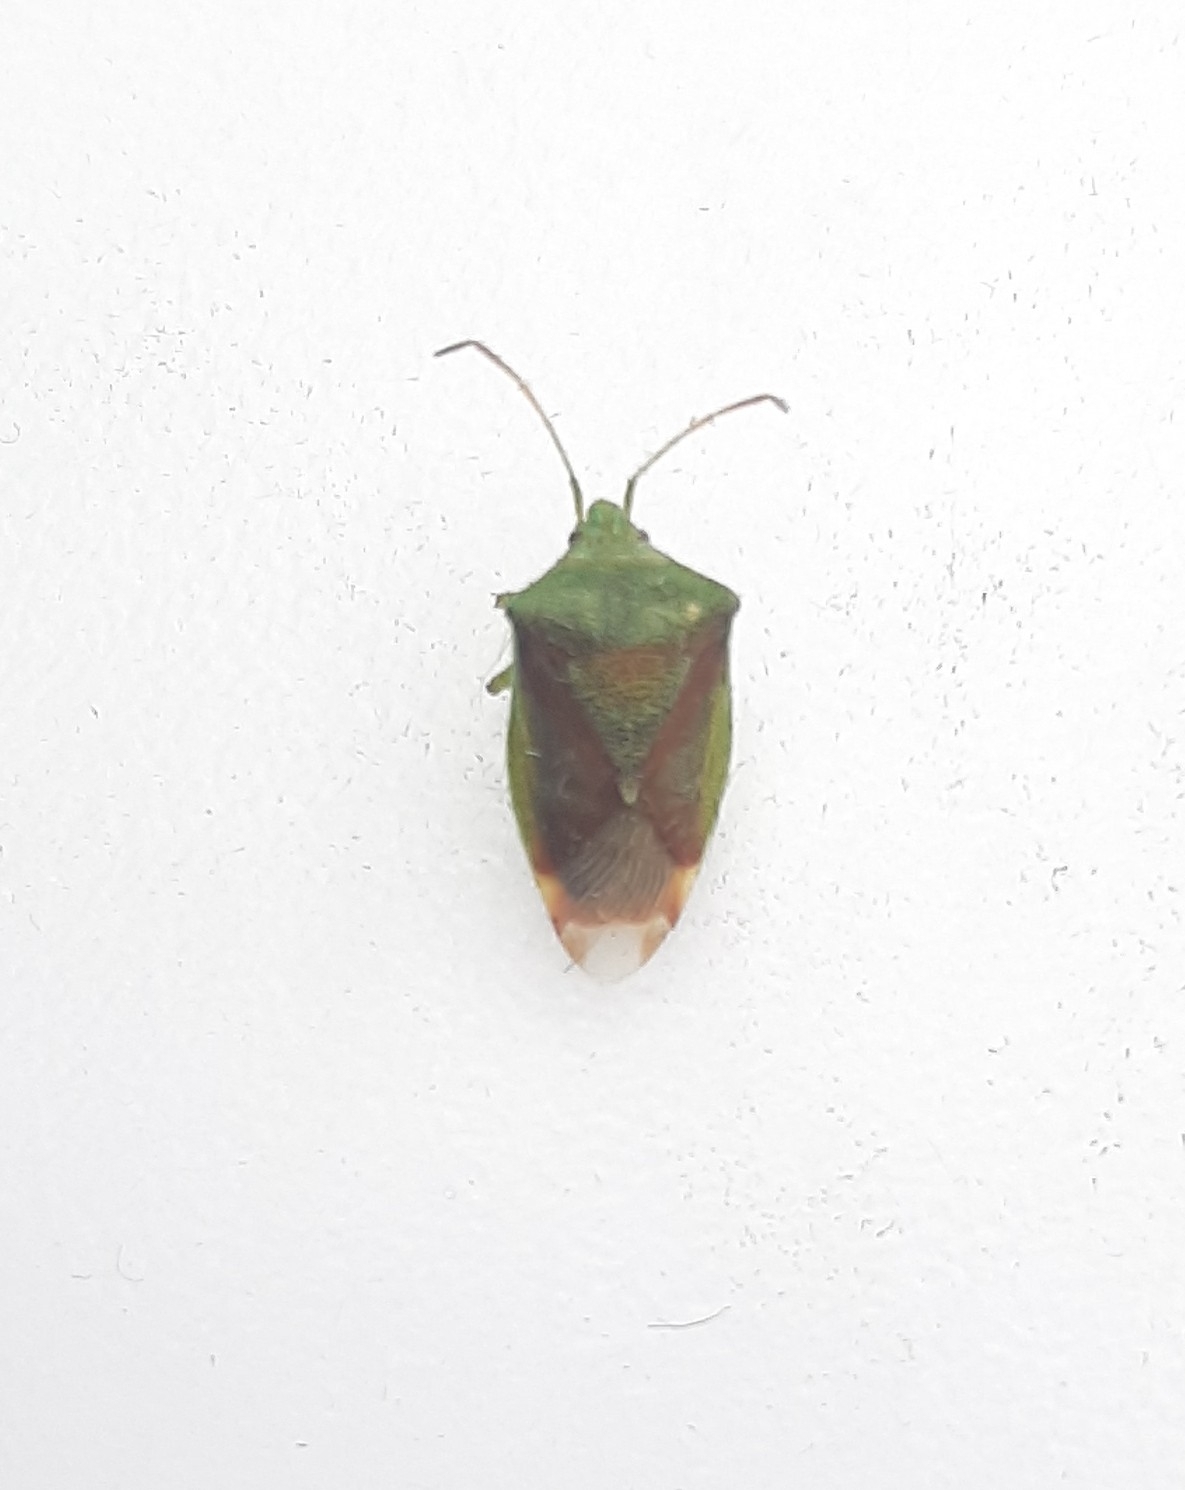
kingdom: Animalia
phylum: Arthropoda
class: Insecta
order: Hemiptera
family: Acanthosomatidae
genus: Elasmostethus
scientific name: Elasmostethus
